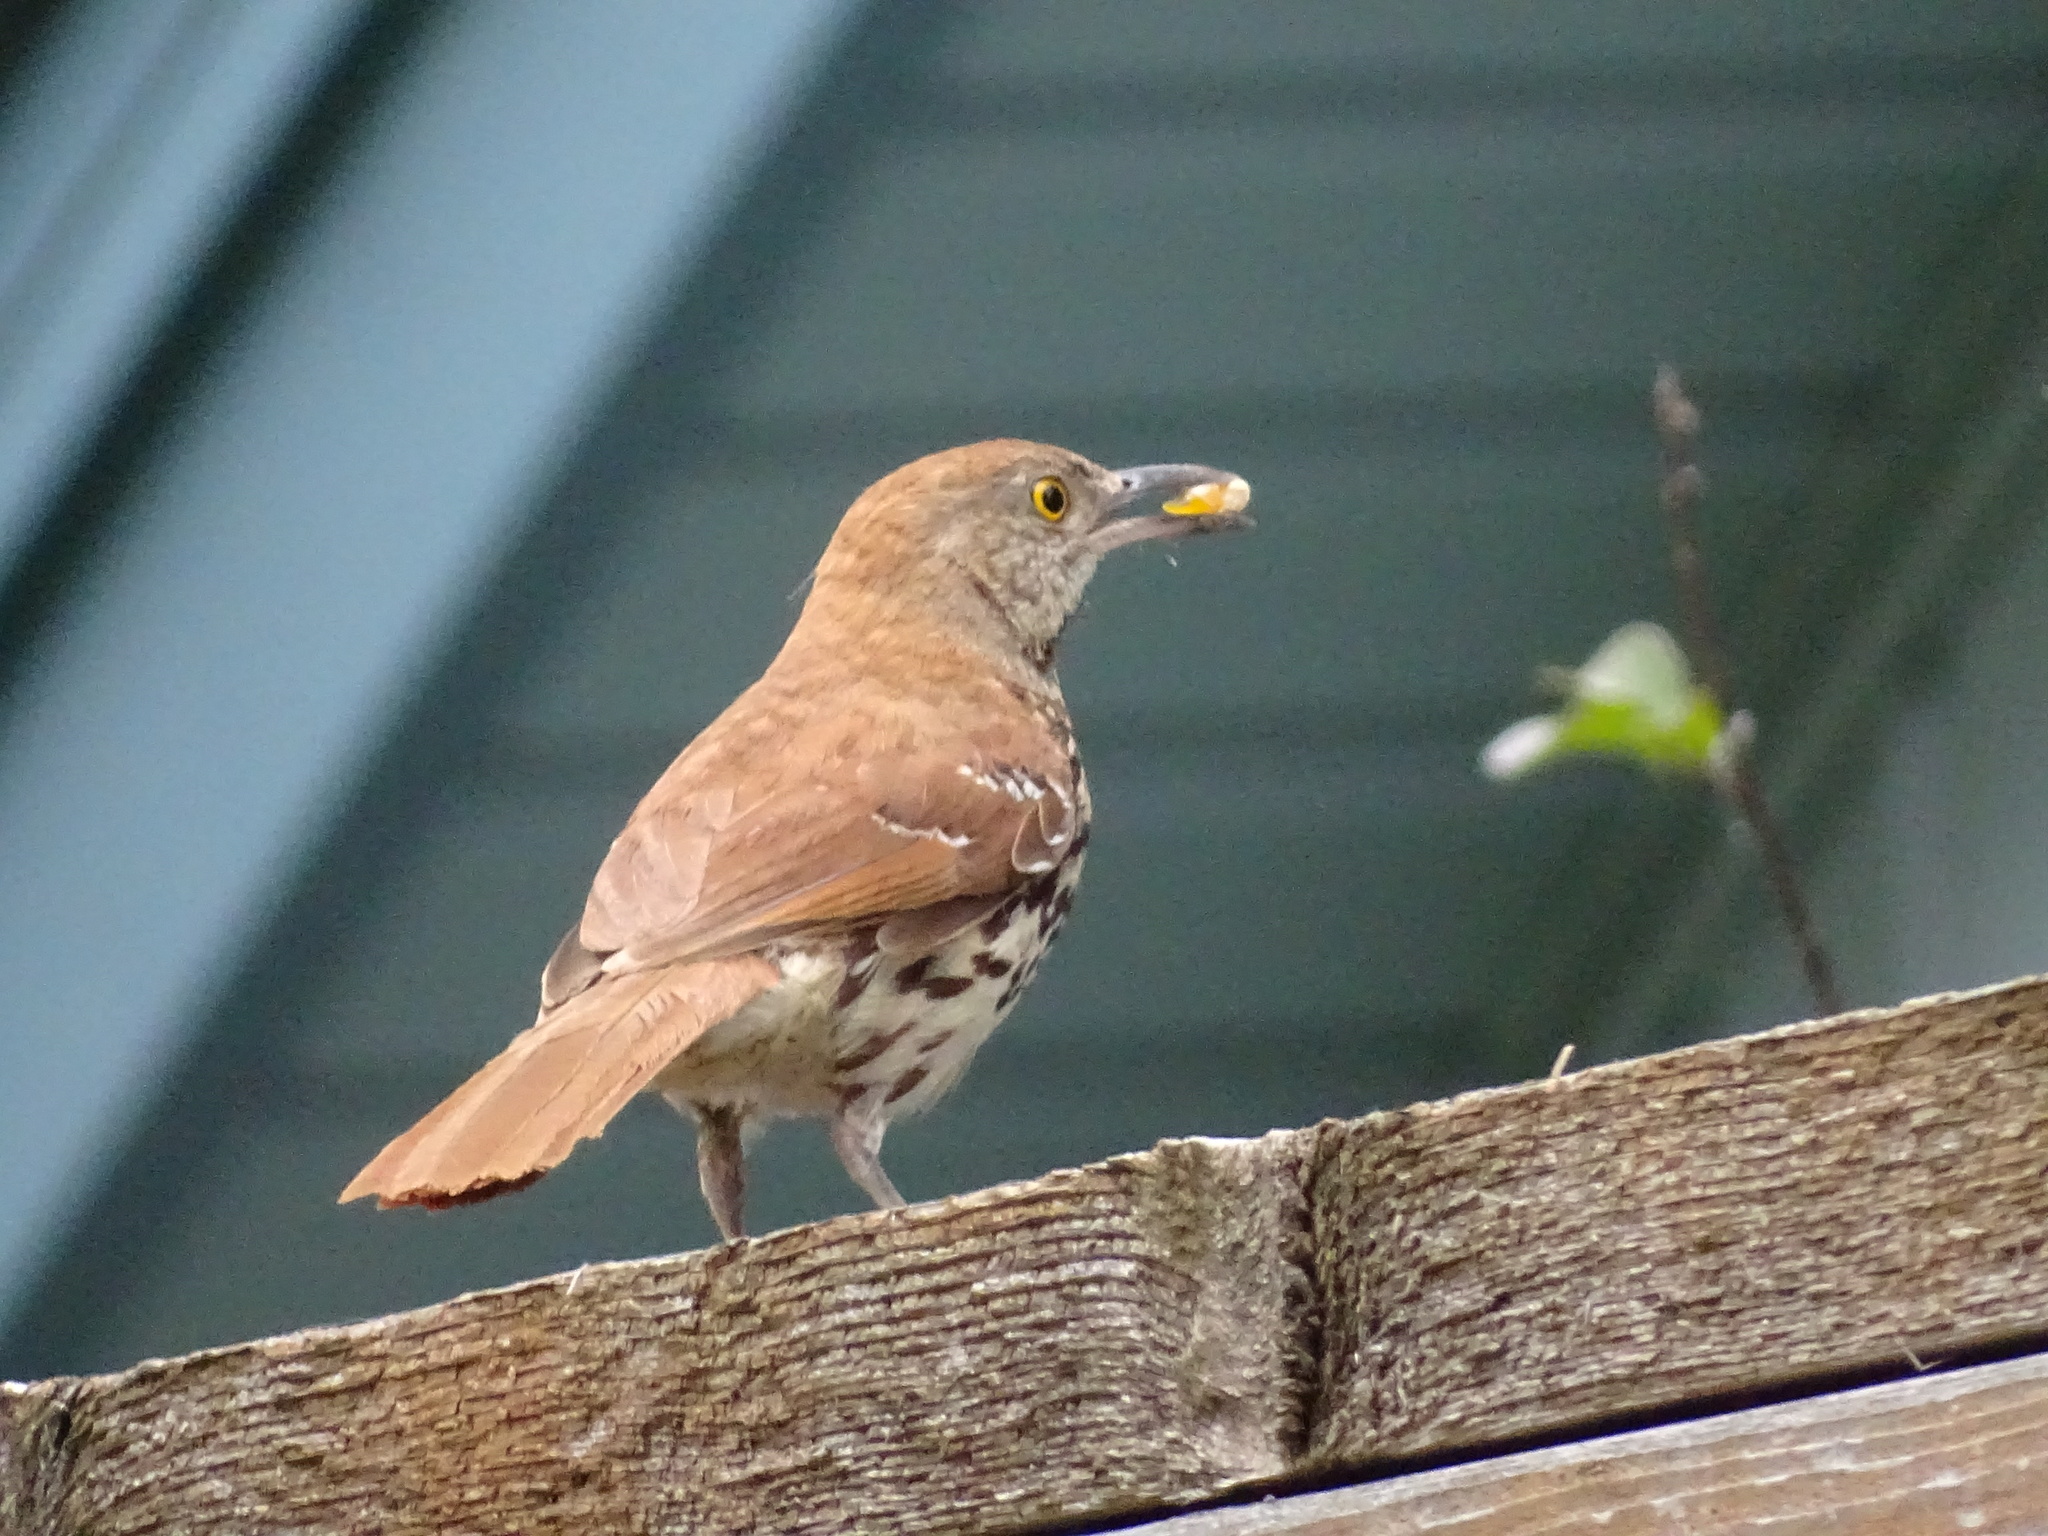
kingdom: Animalia
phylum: Chordata
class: Aves
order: Passeriformes
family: Mimidae
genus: Toxostoma
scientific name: Toxostoma rufum
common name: Brown thrasher
